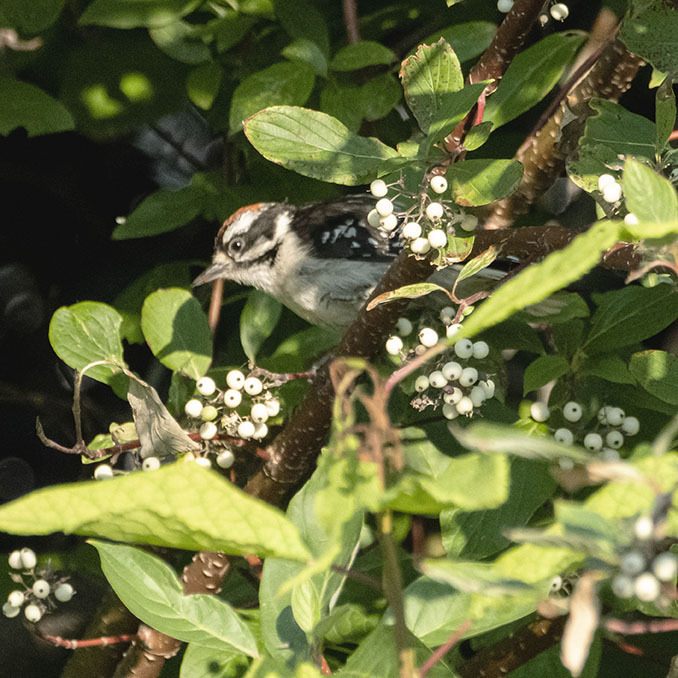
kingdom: Animalia
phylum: Chordata
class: Aves
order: Piciformes
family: Picidae
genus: Dryobates
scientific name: Dryobates pubescens
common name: Downy woodpecker
